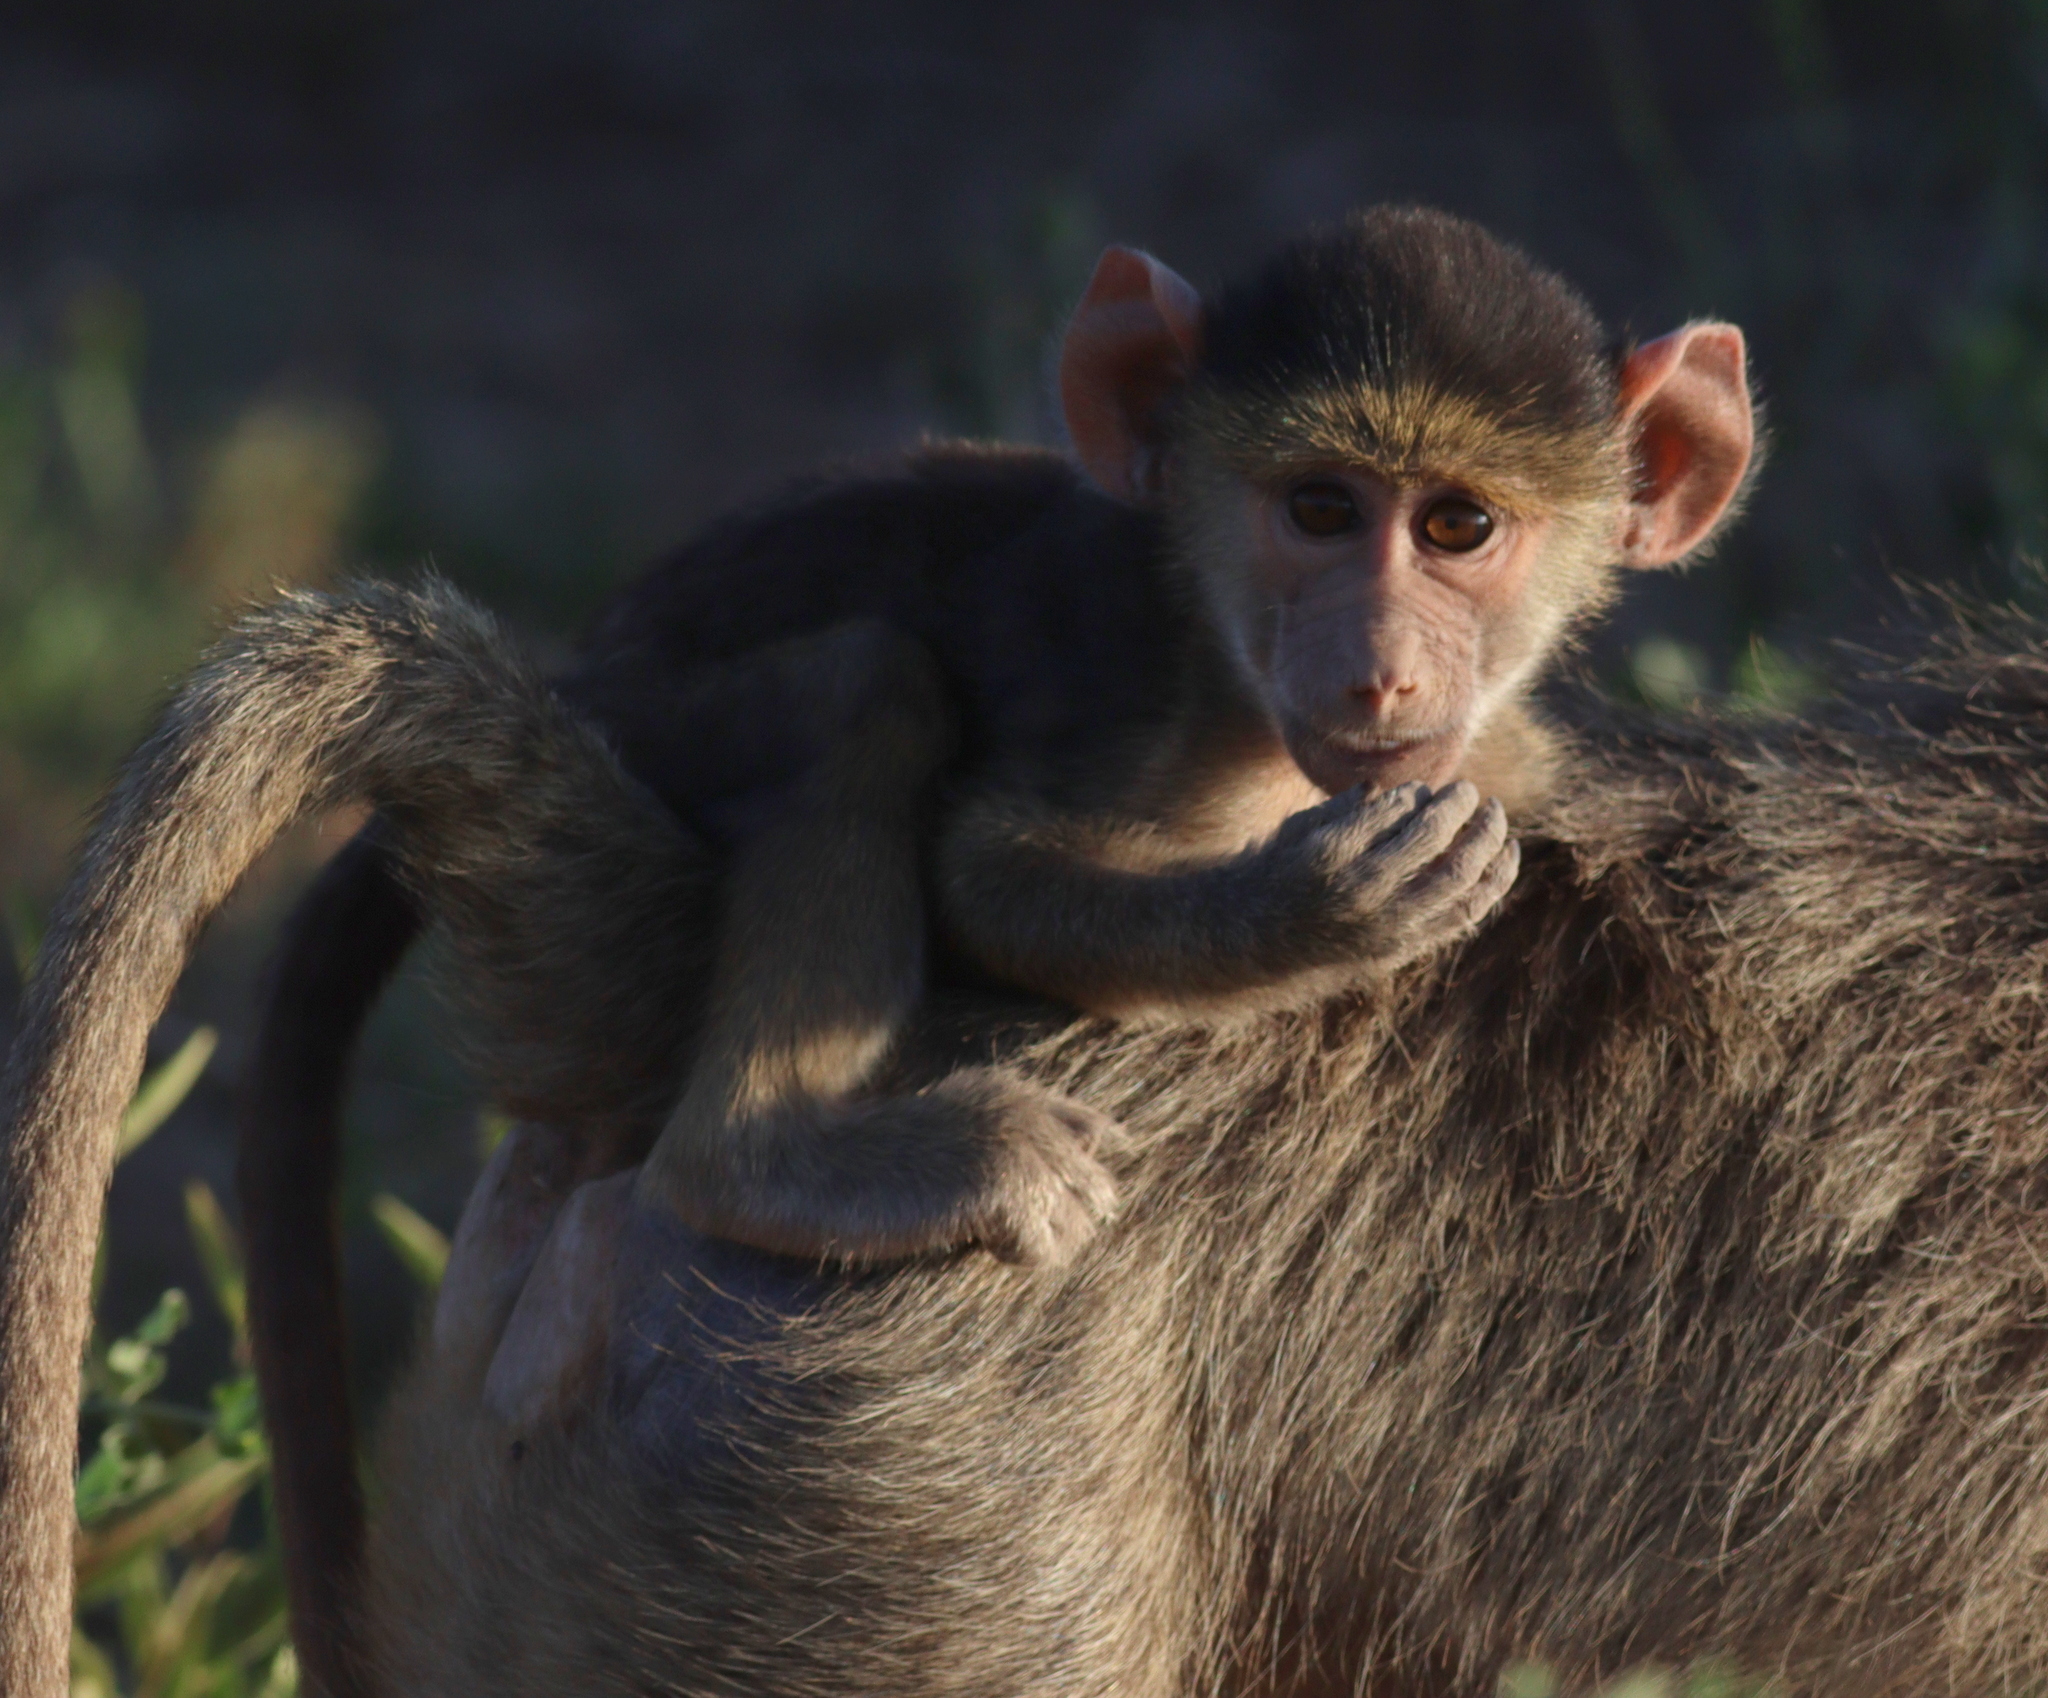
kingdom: Animalia
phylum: Chordata
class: Mammalia
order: Primates
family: Cercopithecidae
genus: Papio
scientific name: Papio cynocephalus
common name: Yellow baboon
